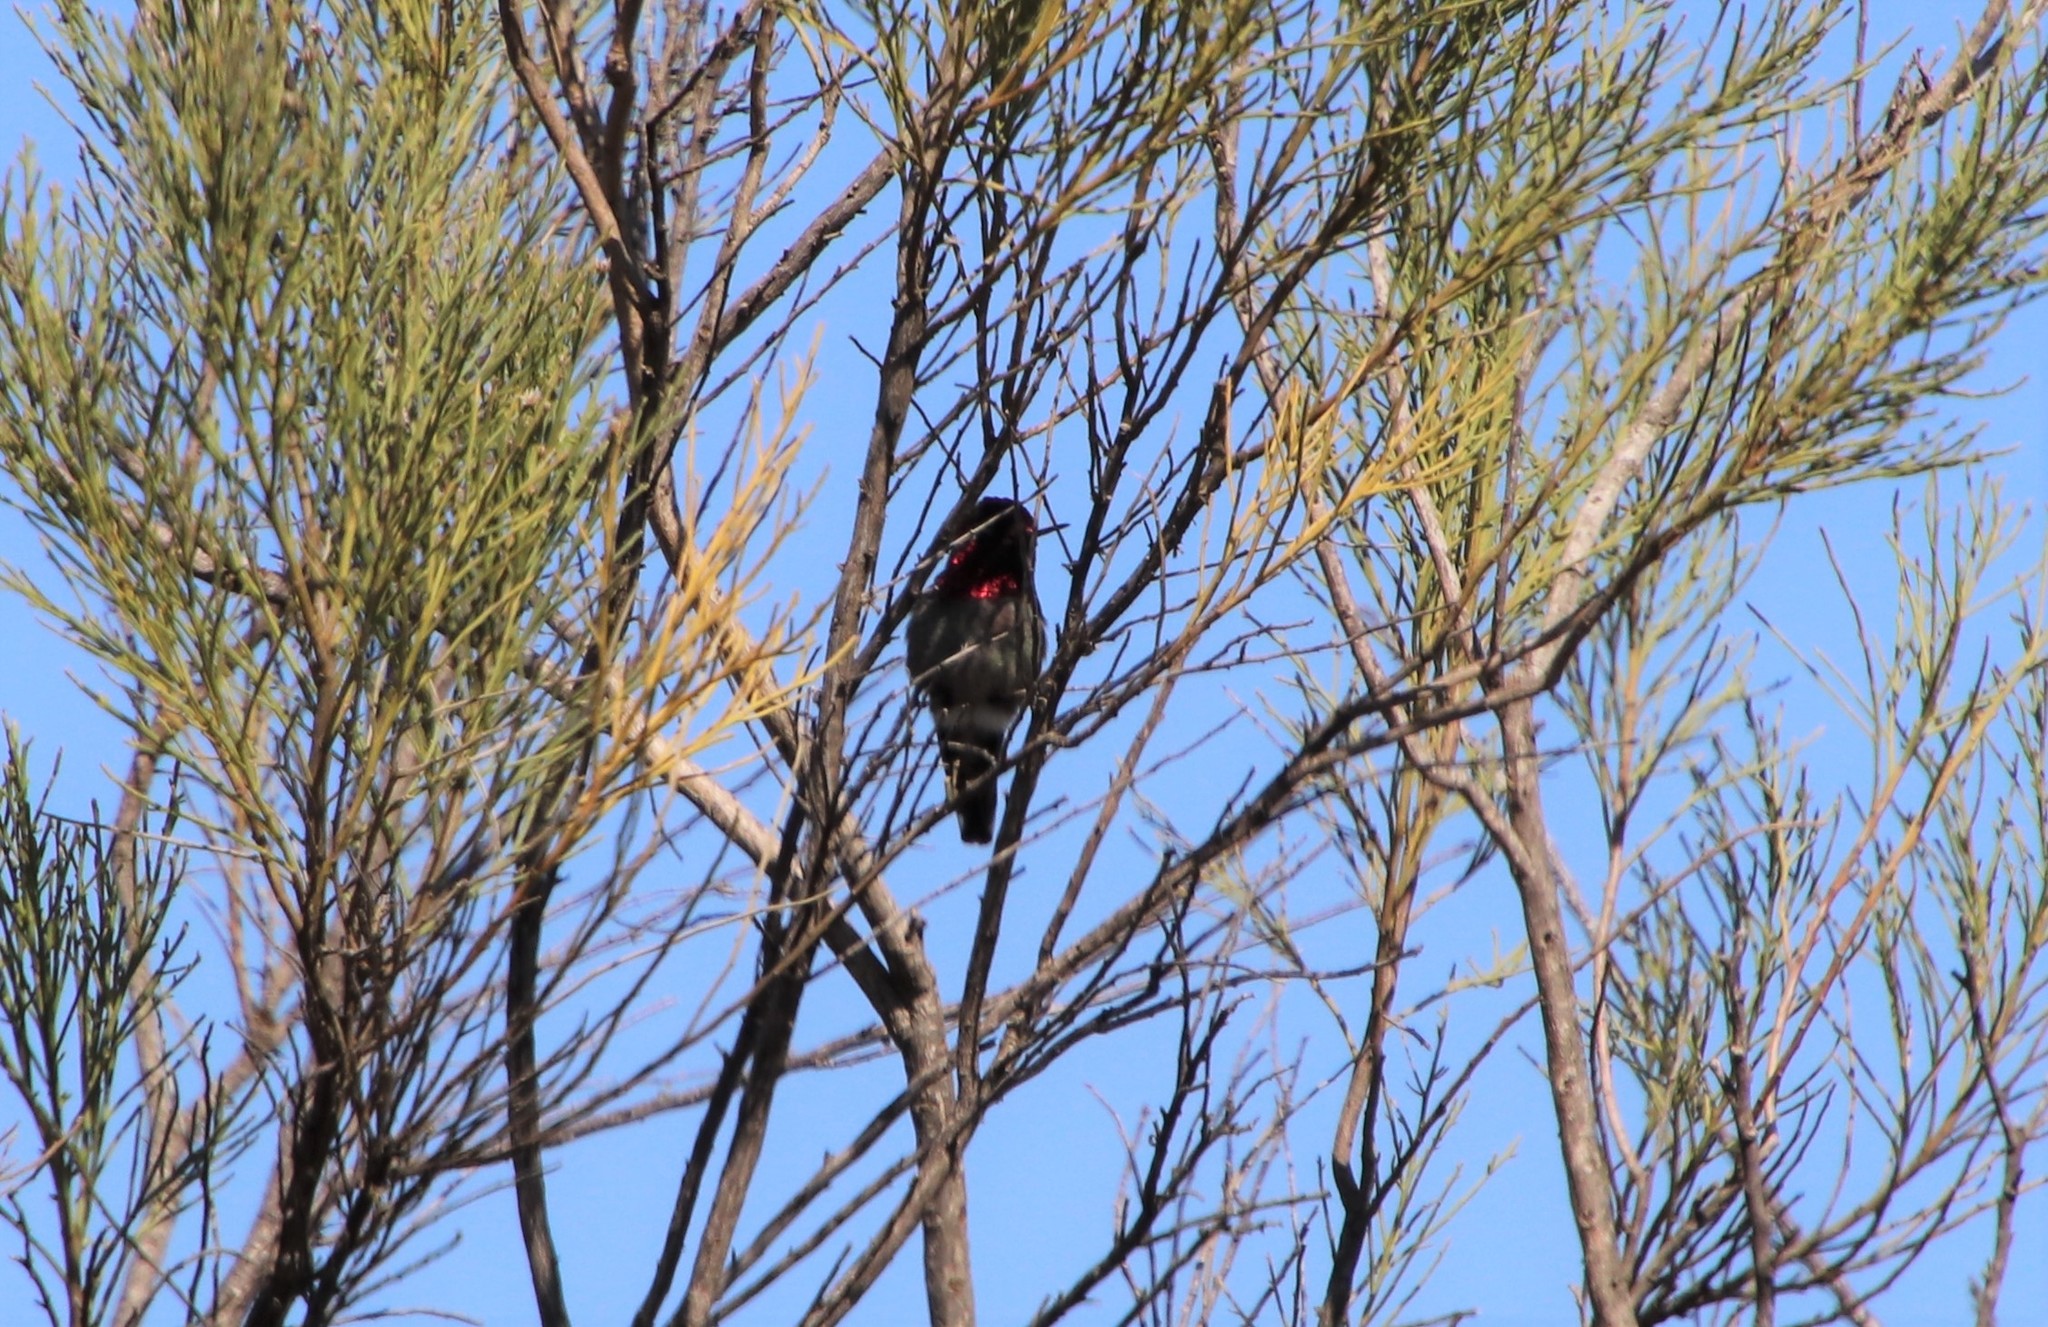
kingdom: Animalia
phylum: Chordata
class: Aves
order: Apodiformes
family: Trochilidae
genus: Calypte
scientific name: Calypte anna
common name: Anna's hummingbird
